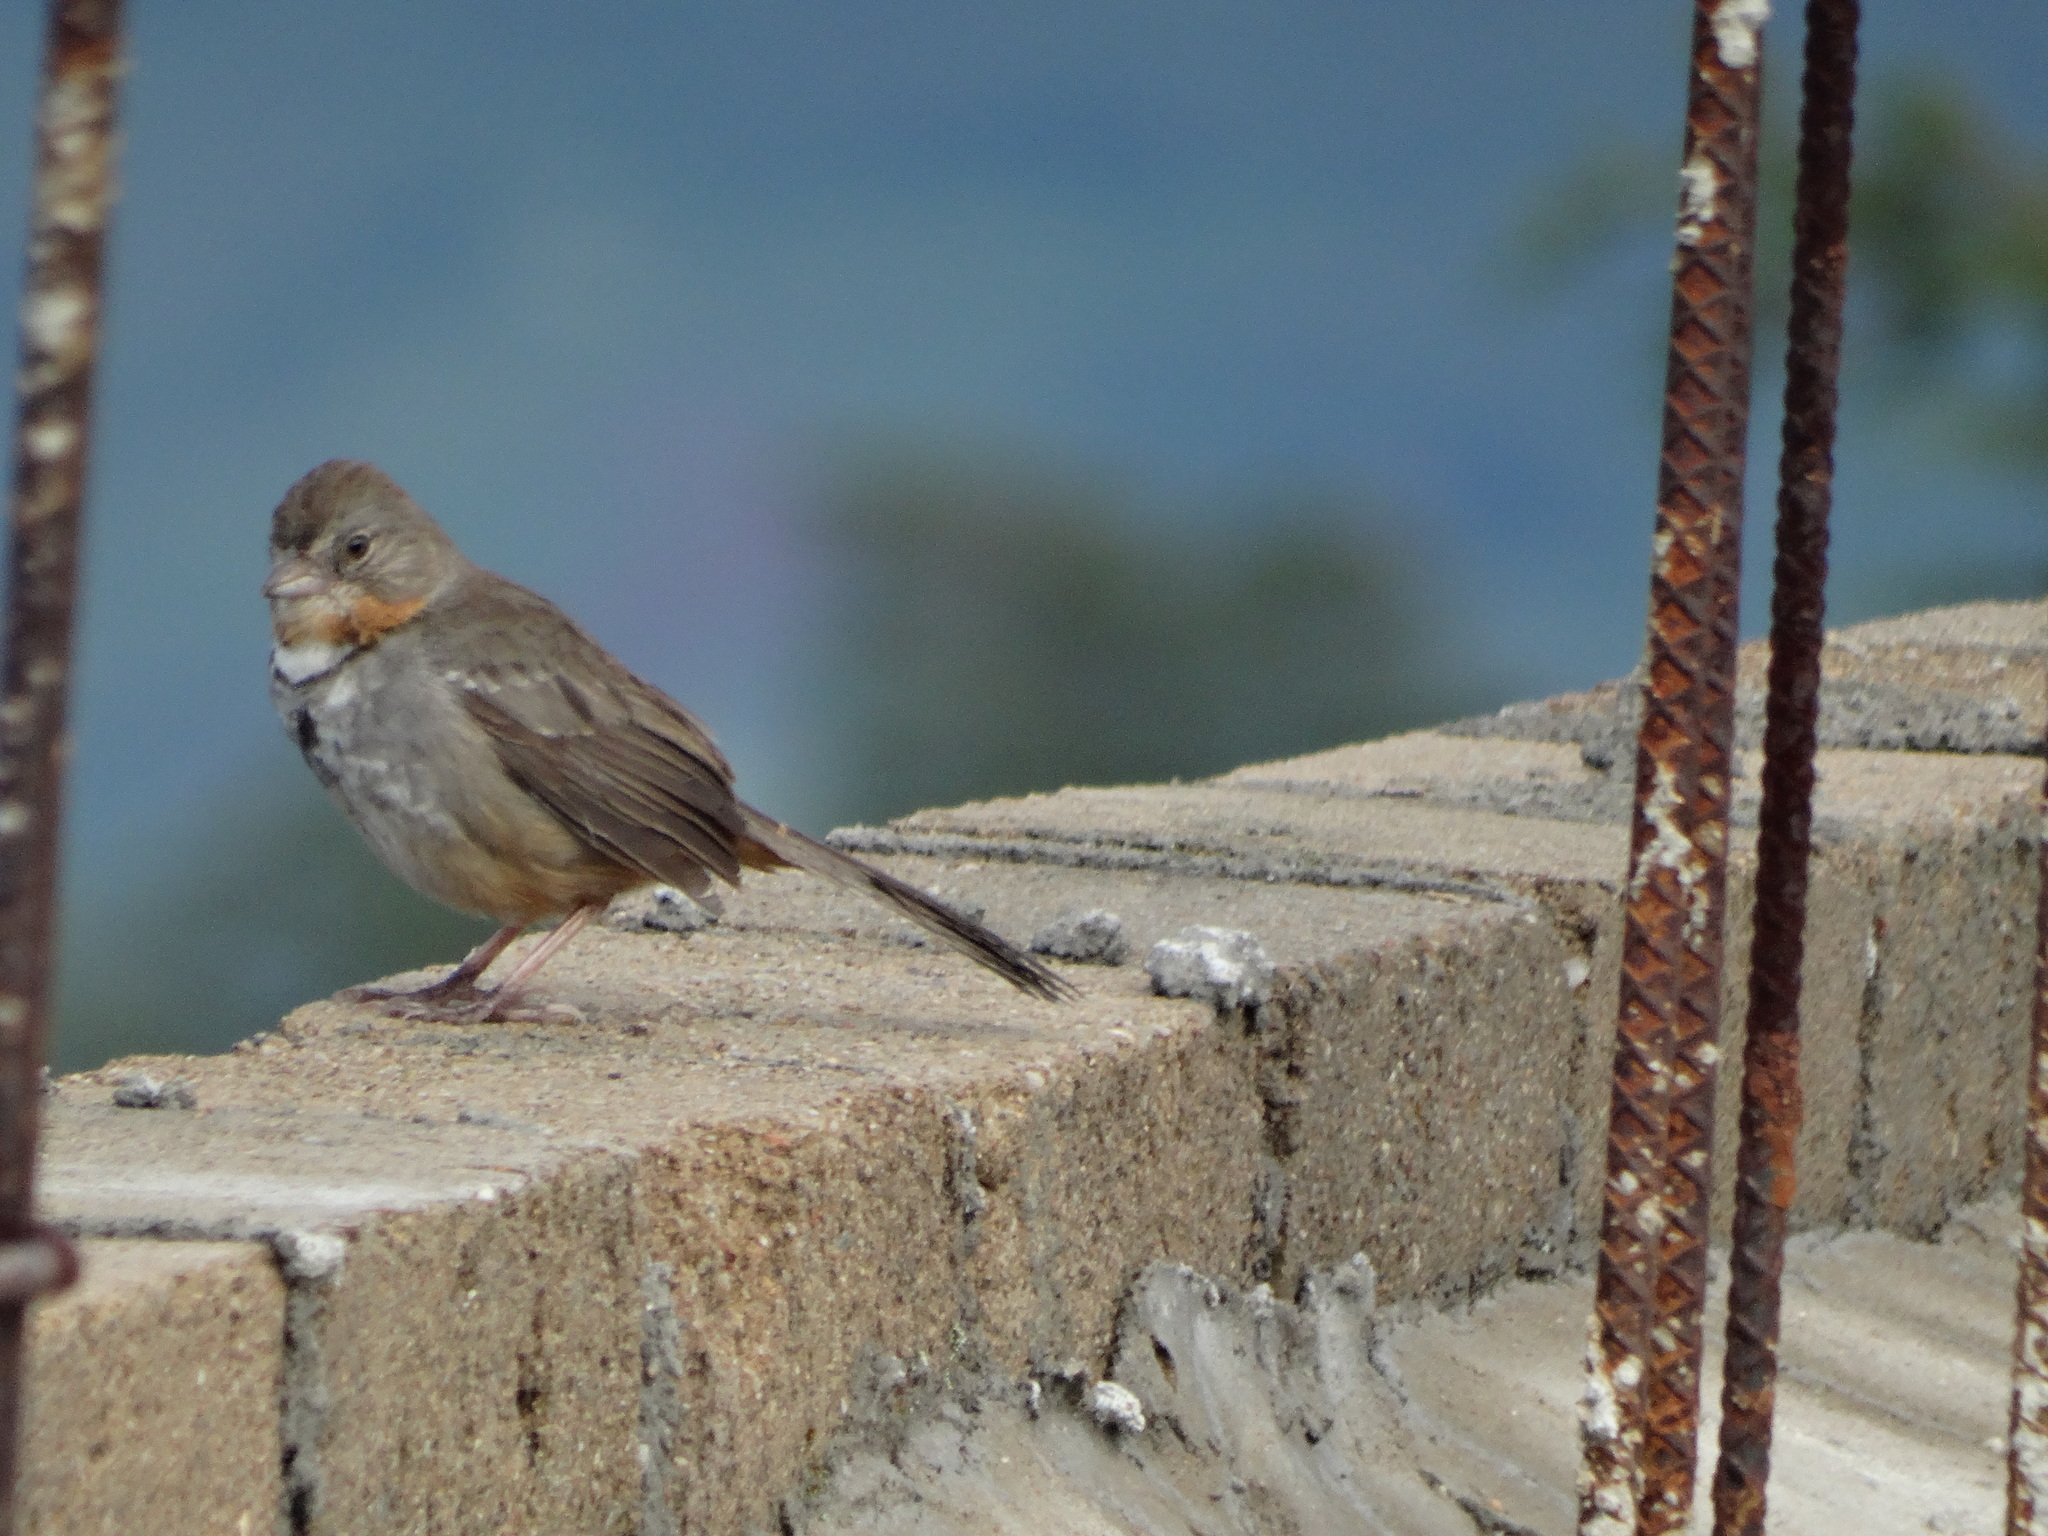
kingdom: Animalia
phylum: Chordata
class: Aves
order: Passeriformes
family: Passerellidae
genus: Melozone
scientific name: Melozone albicollis
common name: White-throated towhee
